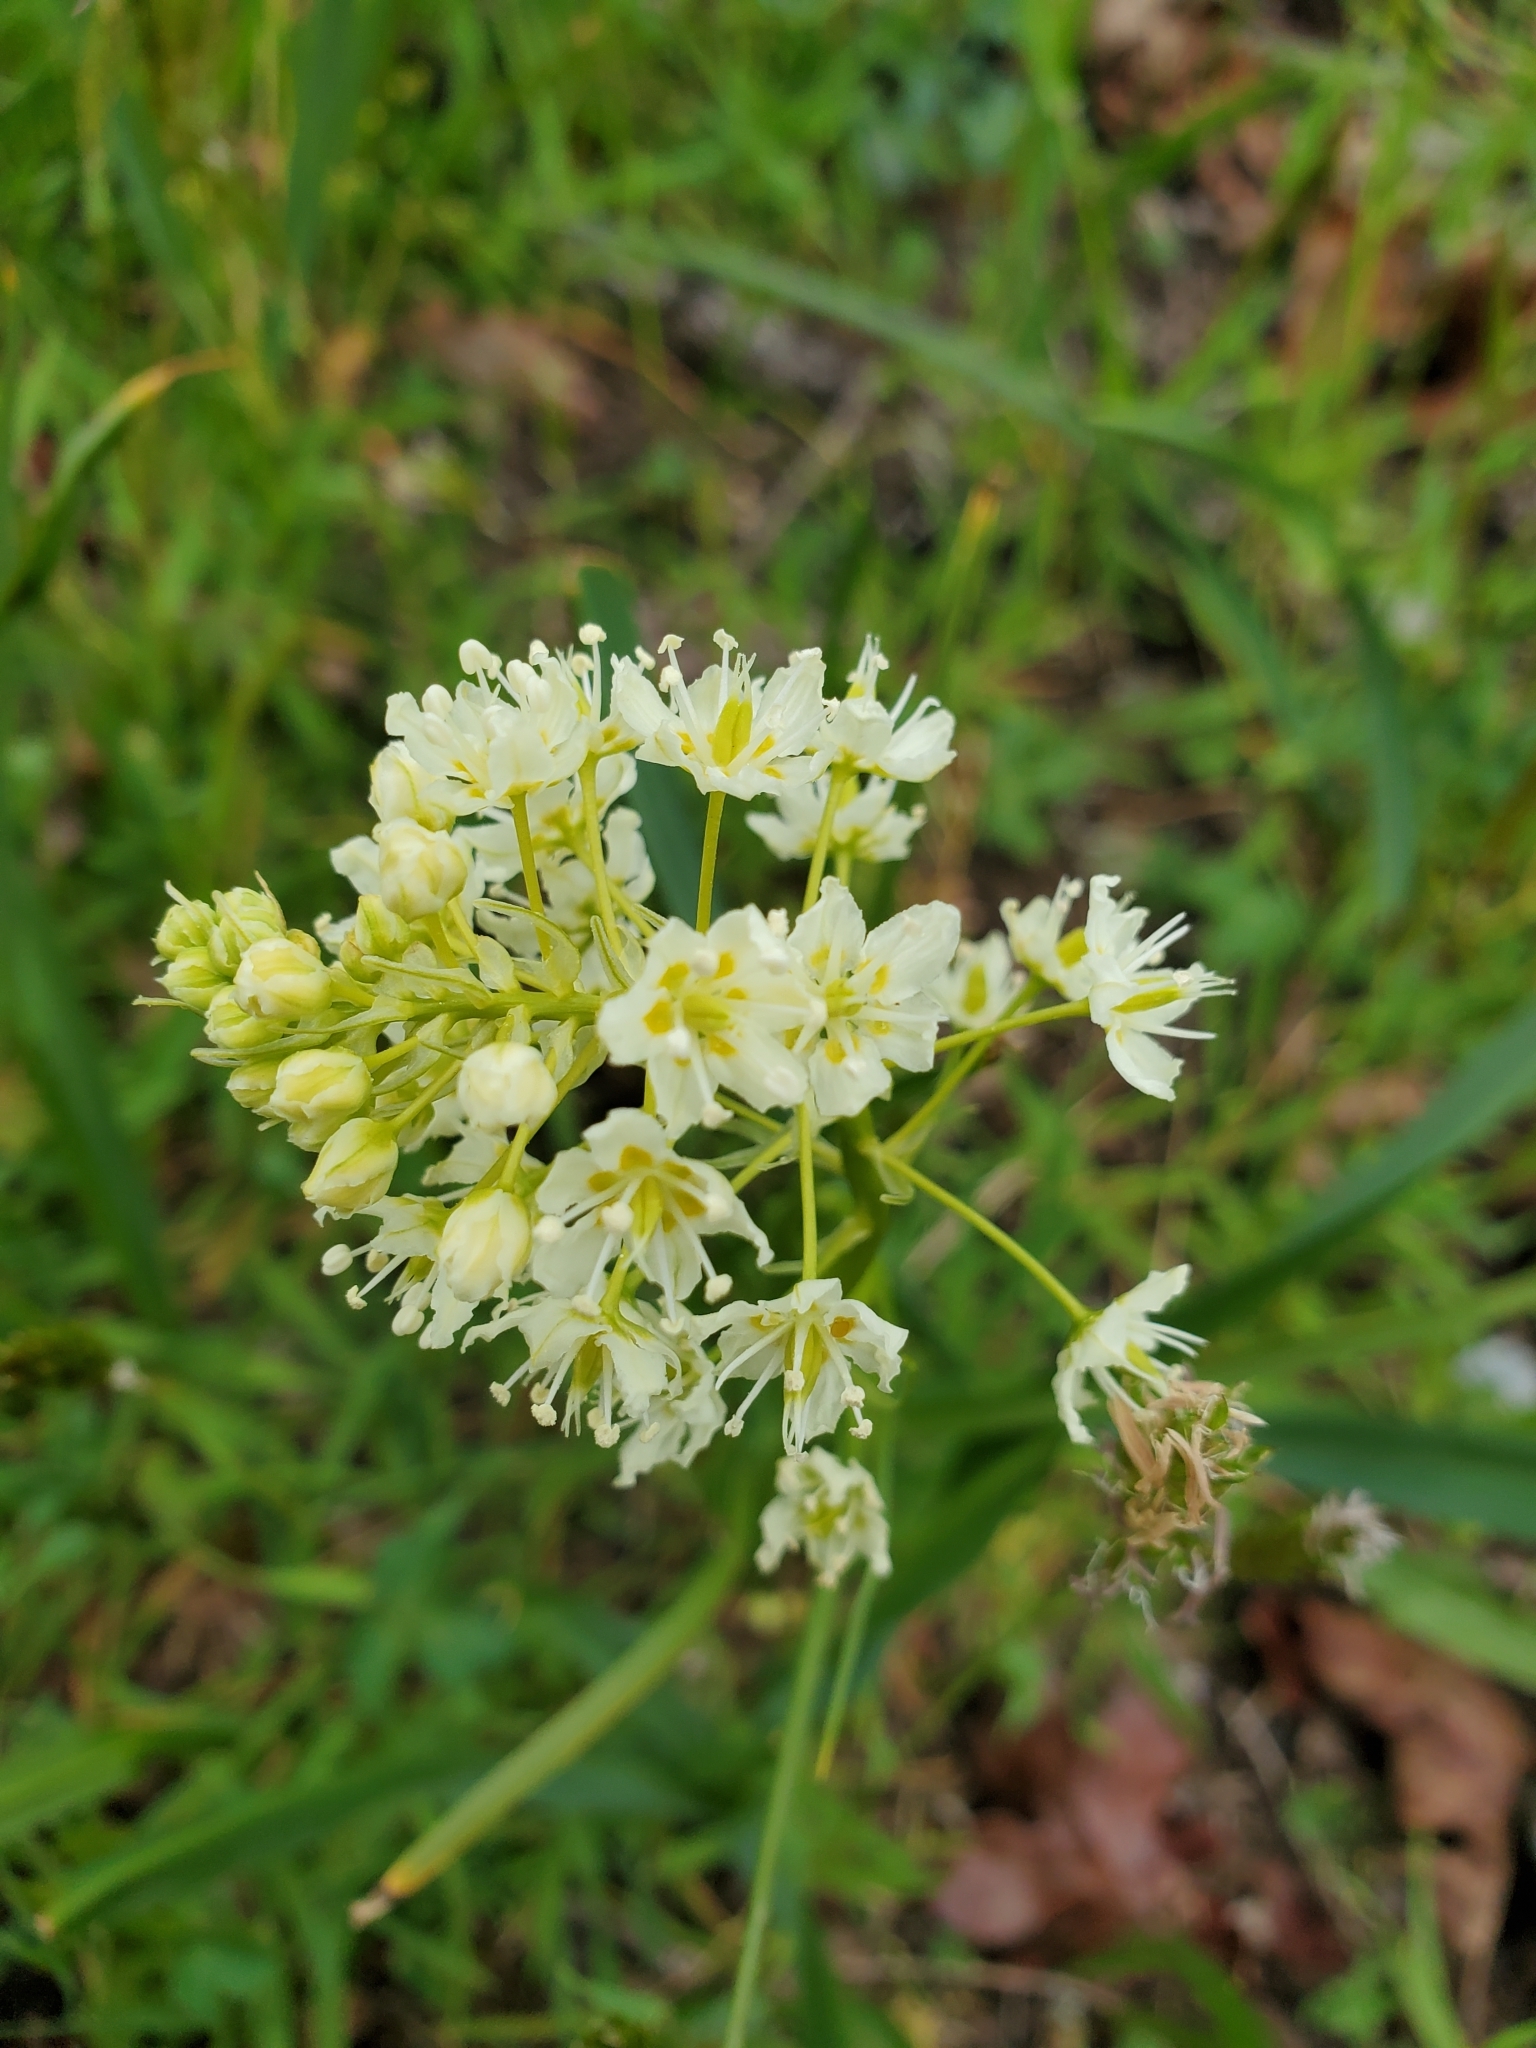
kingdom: Plantae
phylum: Tracheophyta
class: Liliopsida
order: Liliales
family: Melanthiaceae
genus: Toxicoscordion
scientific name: Toxicoscordion venenosum
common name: Meadow death camas
